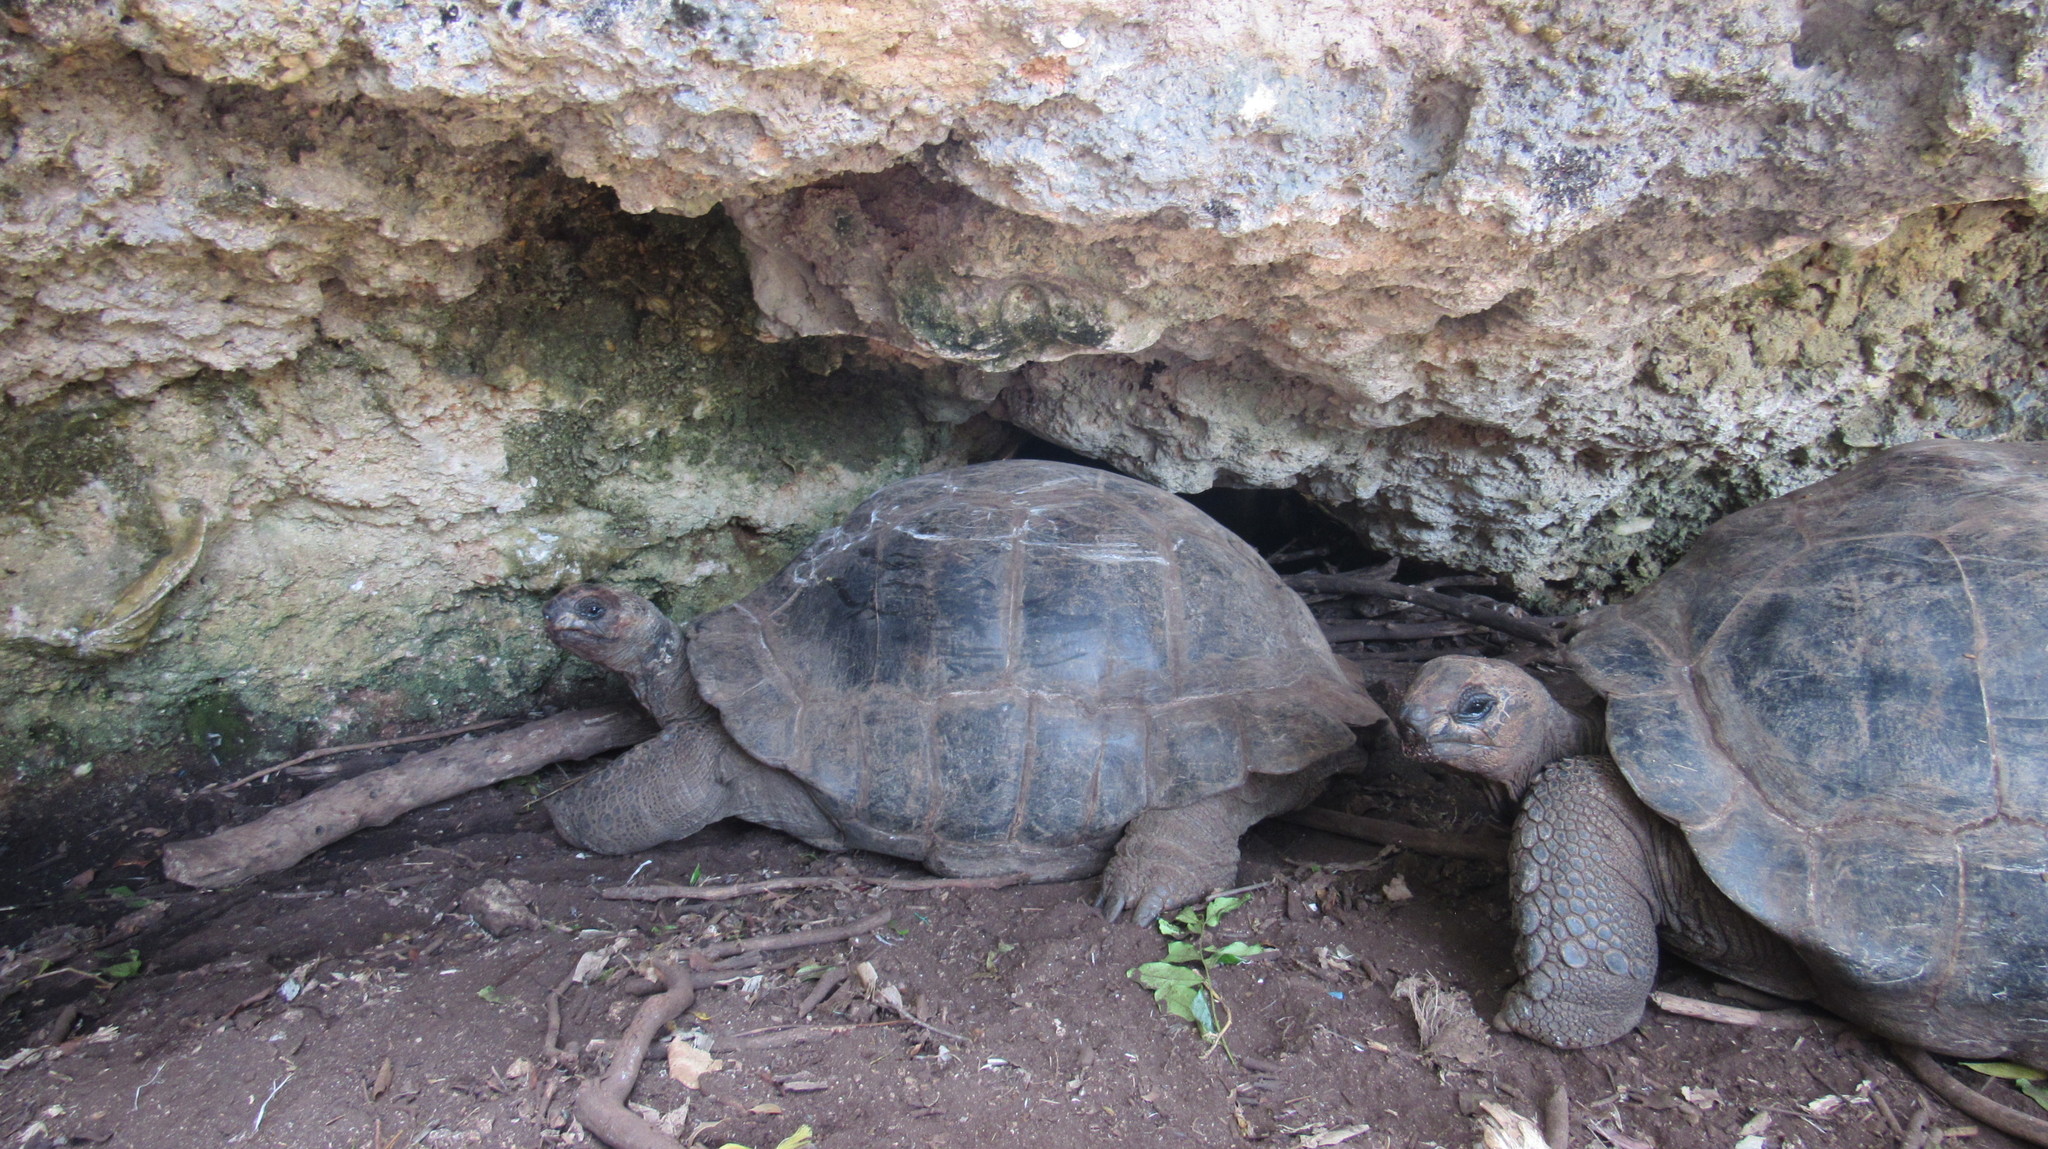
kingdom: Animalia
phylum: Chordata
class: Testudines
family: Testudinidae
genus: Aldabrachelys
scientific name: Aldabrachelys gigantea
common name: Aldabra giant tortoise
